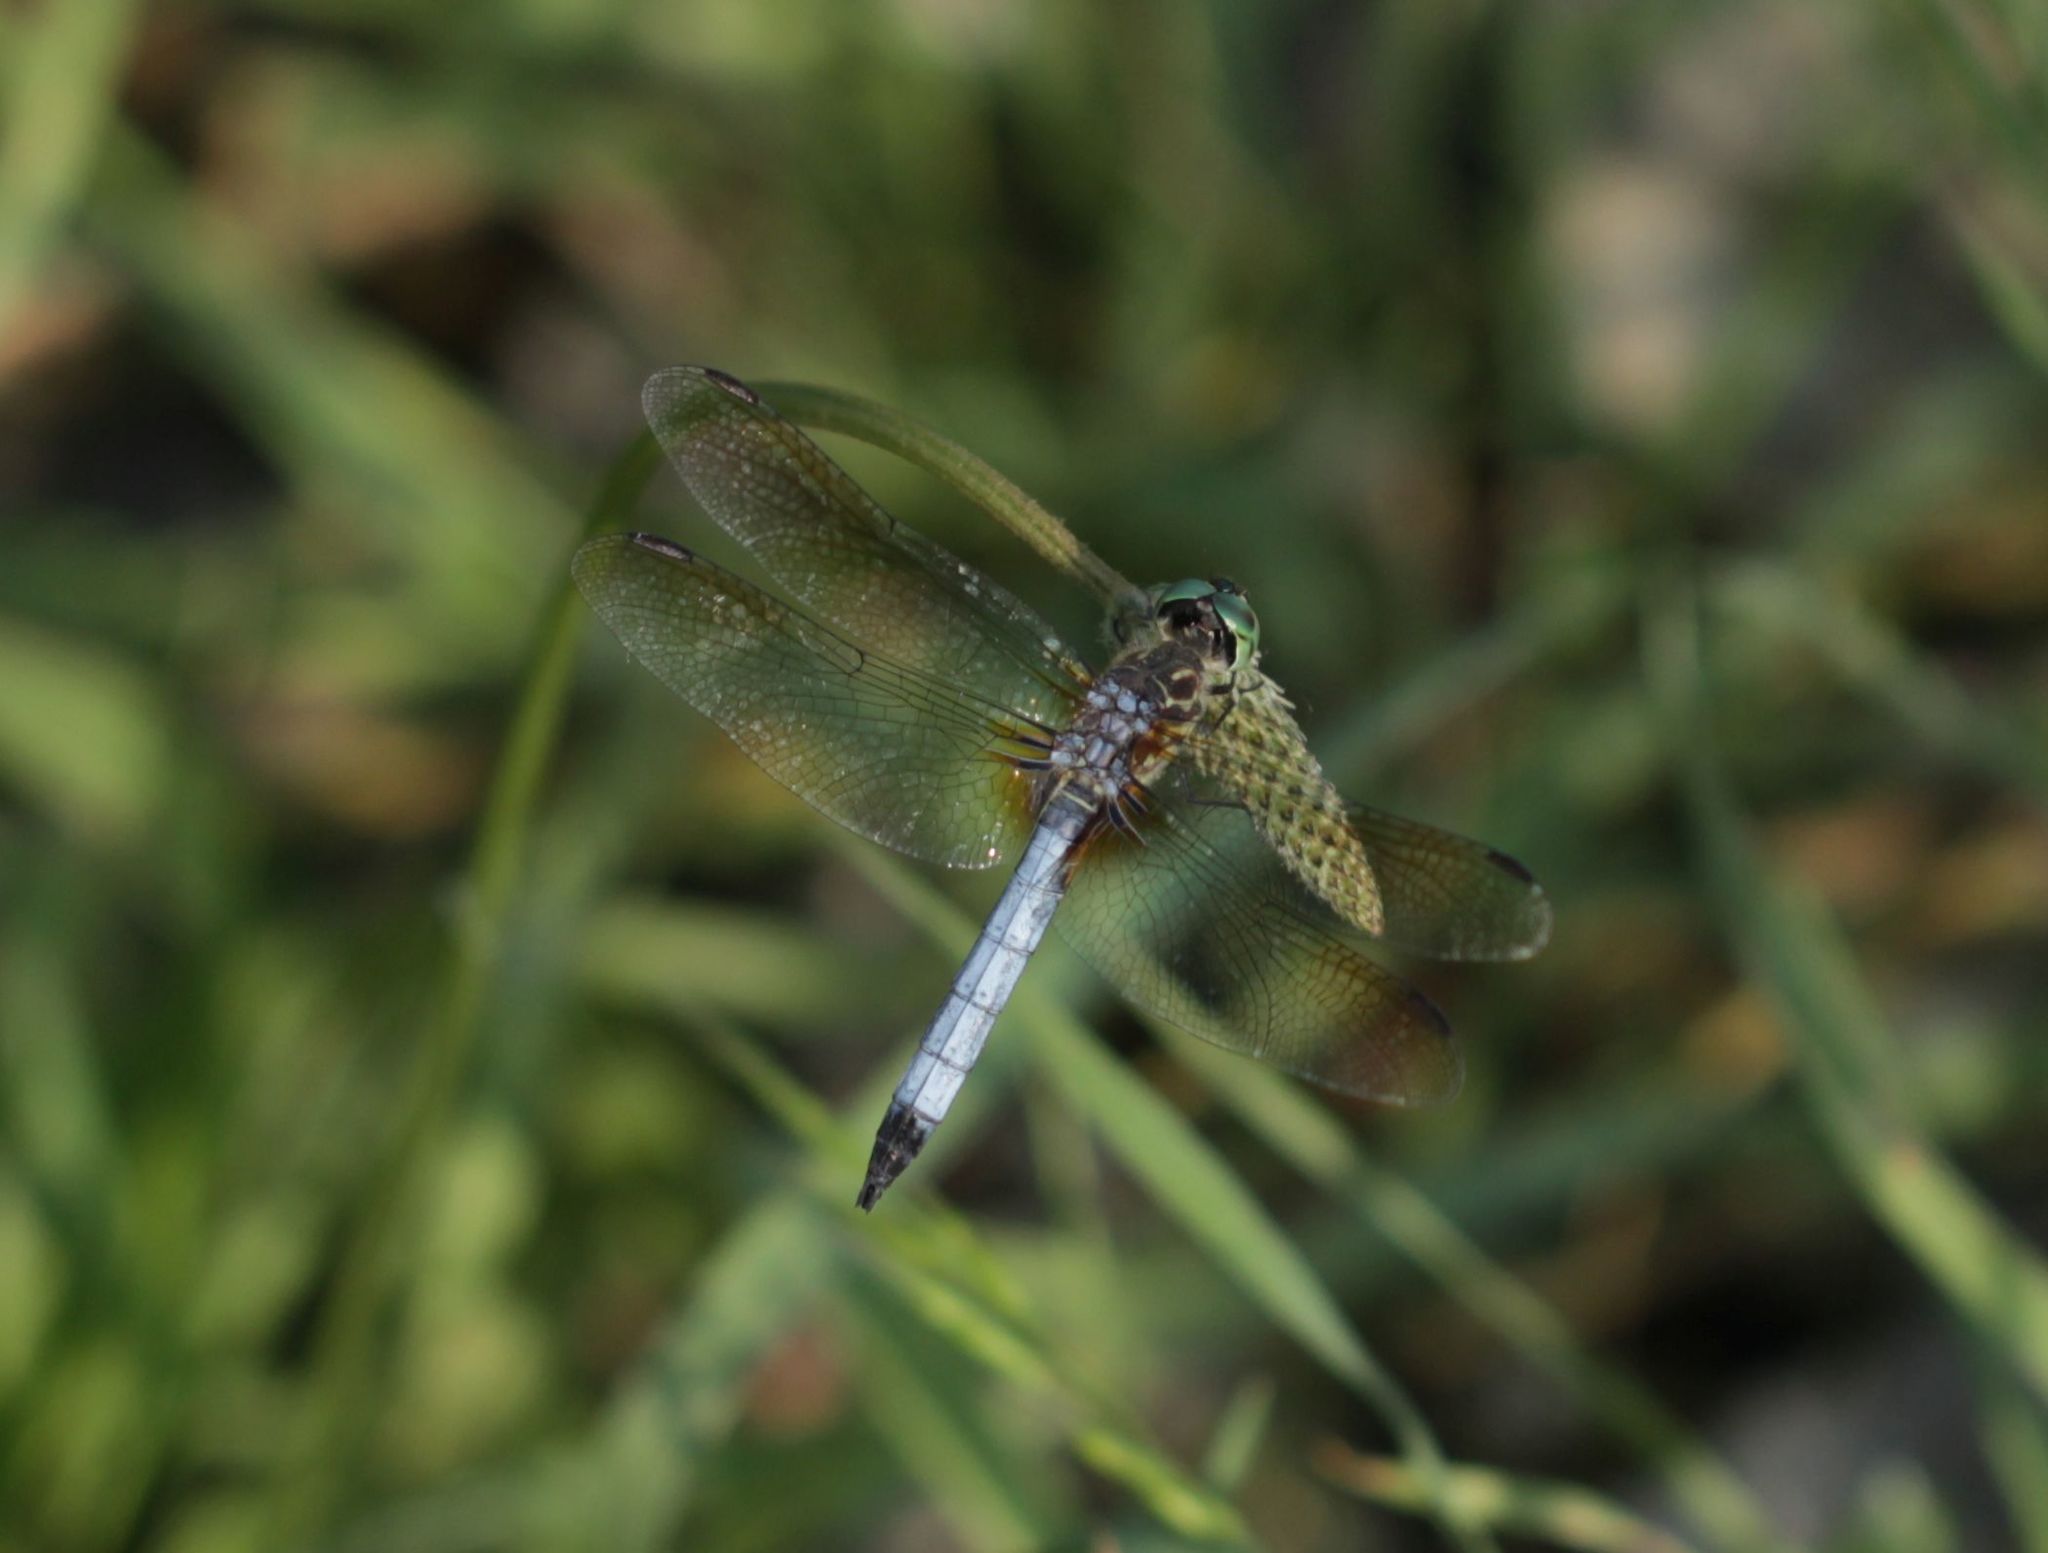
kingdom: Animalia
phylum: Arthropoda
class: Insecta
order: Odonata
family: Libellulidae
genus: Pachydiplax
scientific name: Pachydiplax longipennis
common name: Blue dasher
